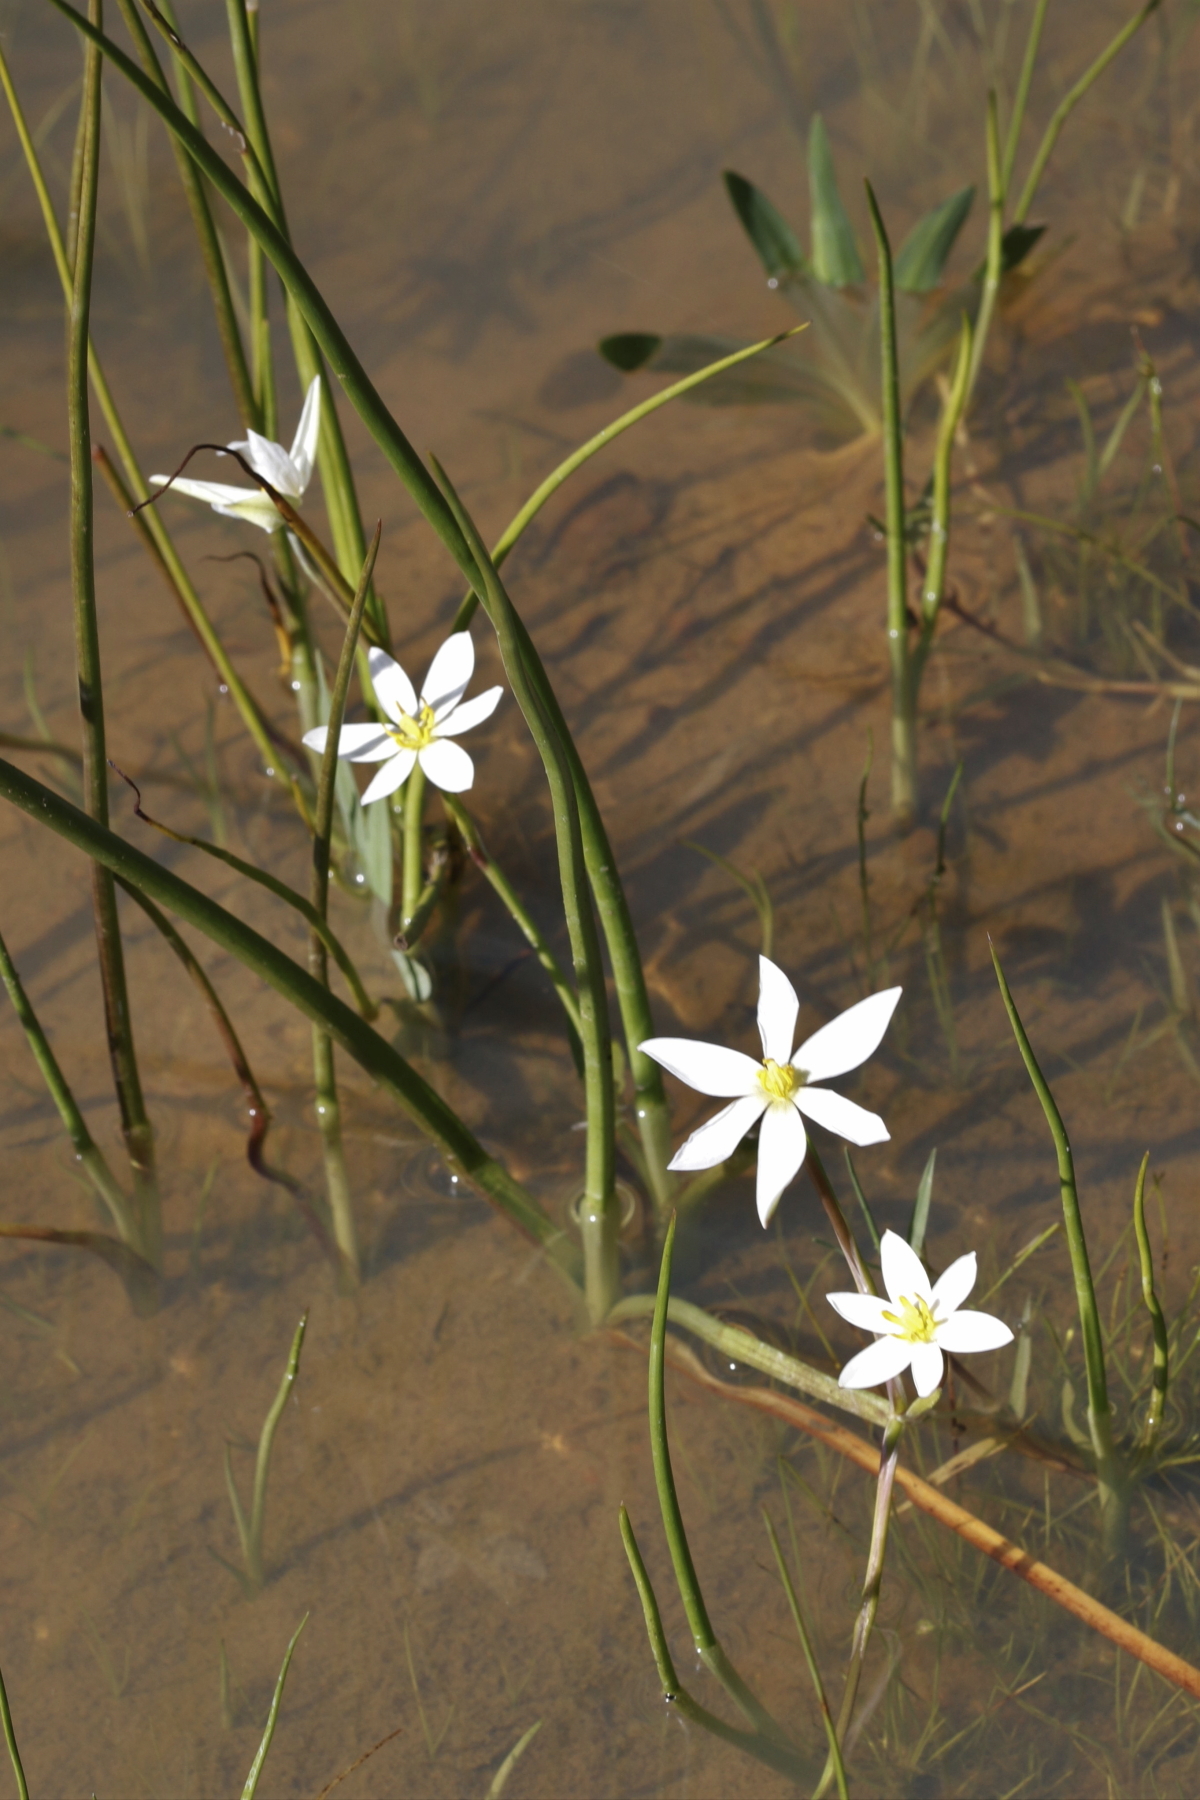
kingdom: Plantae
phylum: Tracheophyta
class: Liliopsida
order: Asparagales
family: Hypoxidaceae
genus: Pauridia
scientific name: Pauridia aquatica
